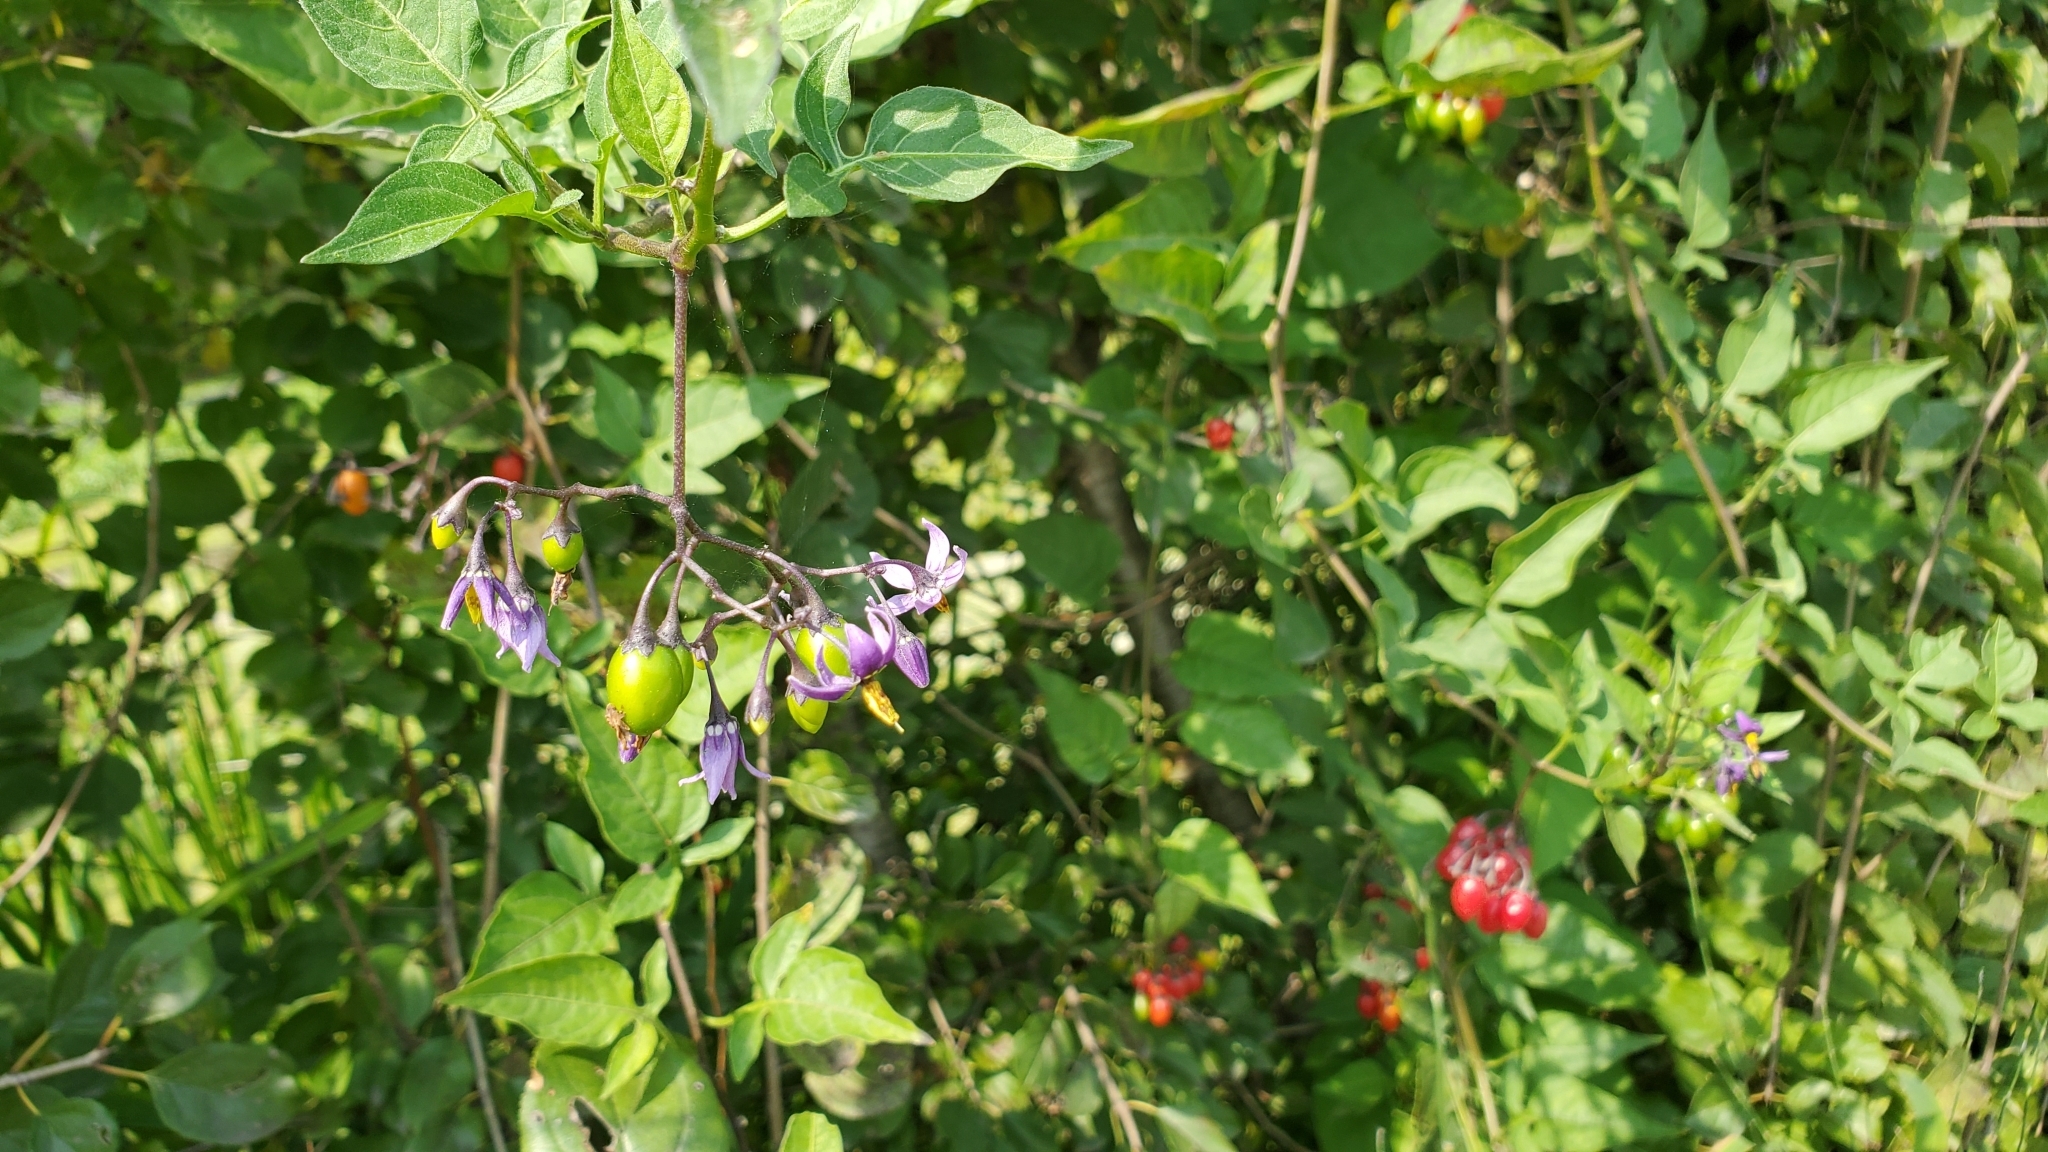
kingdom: Plantae
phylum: Tracheophyta
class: Magnoliopsida
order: Solanales
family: Solanaceae
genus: Solanum
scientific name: Solanum dulcamara
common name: Climbing nightshade
